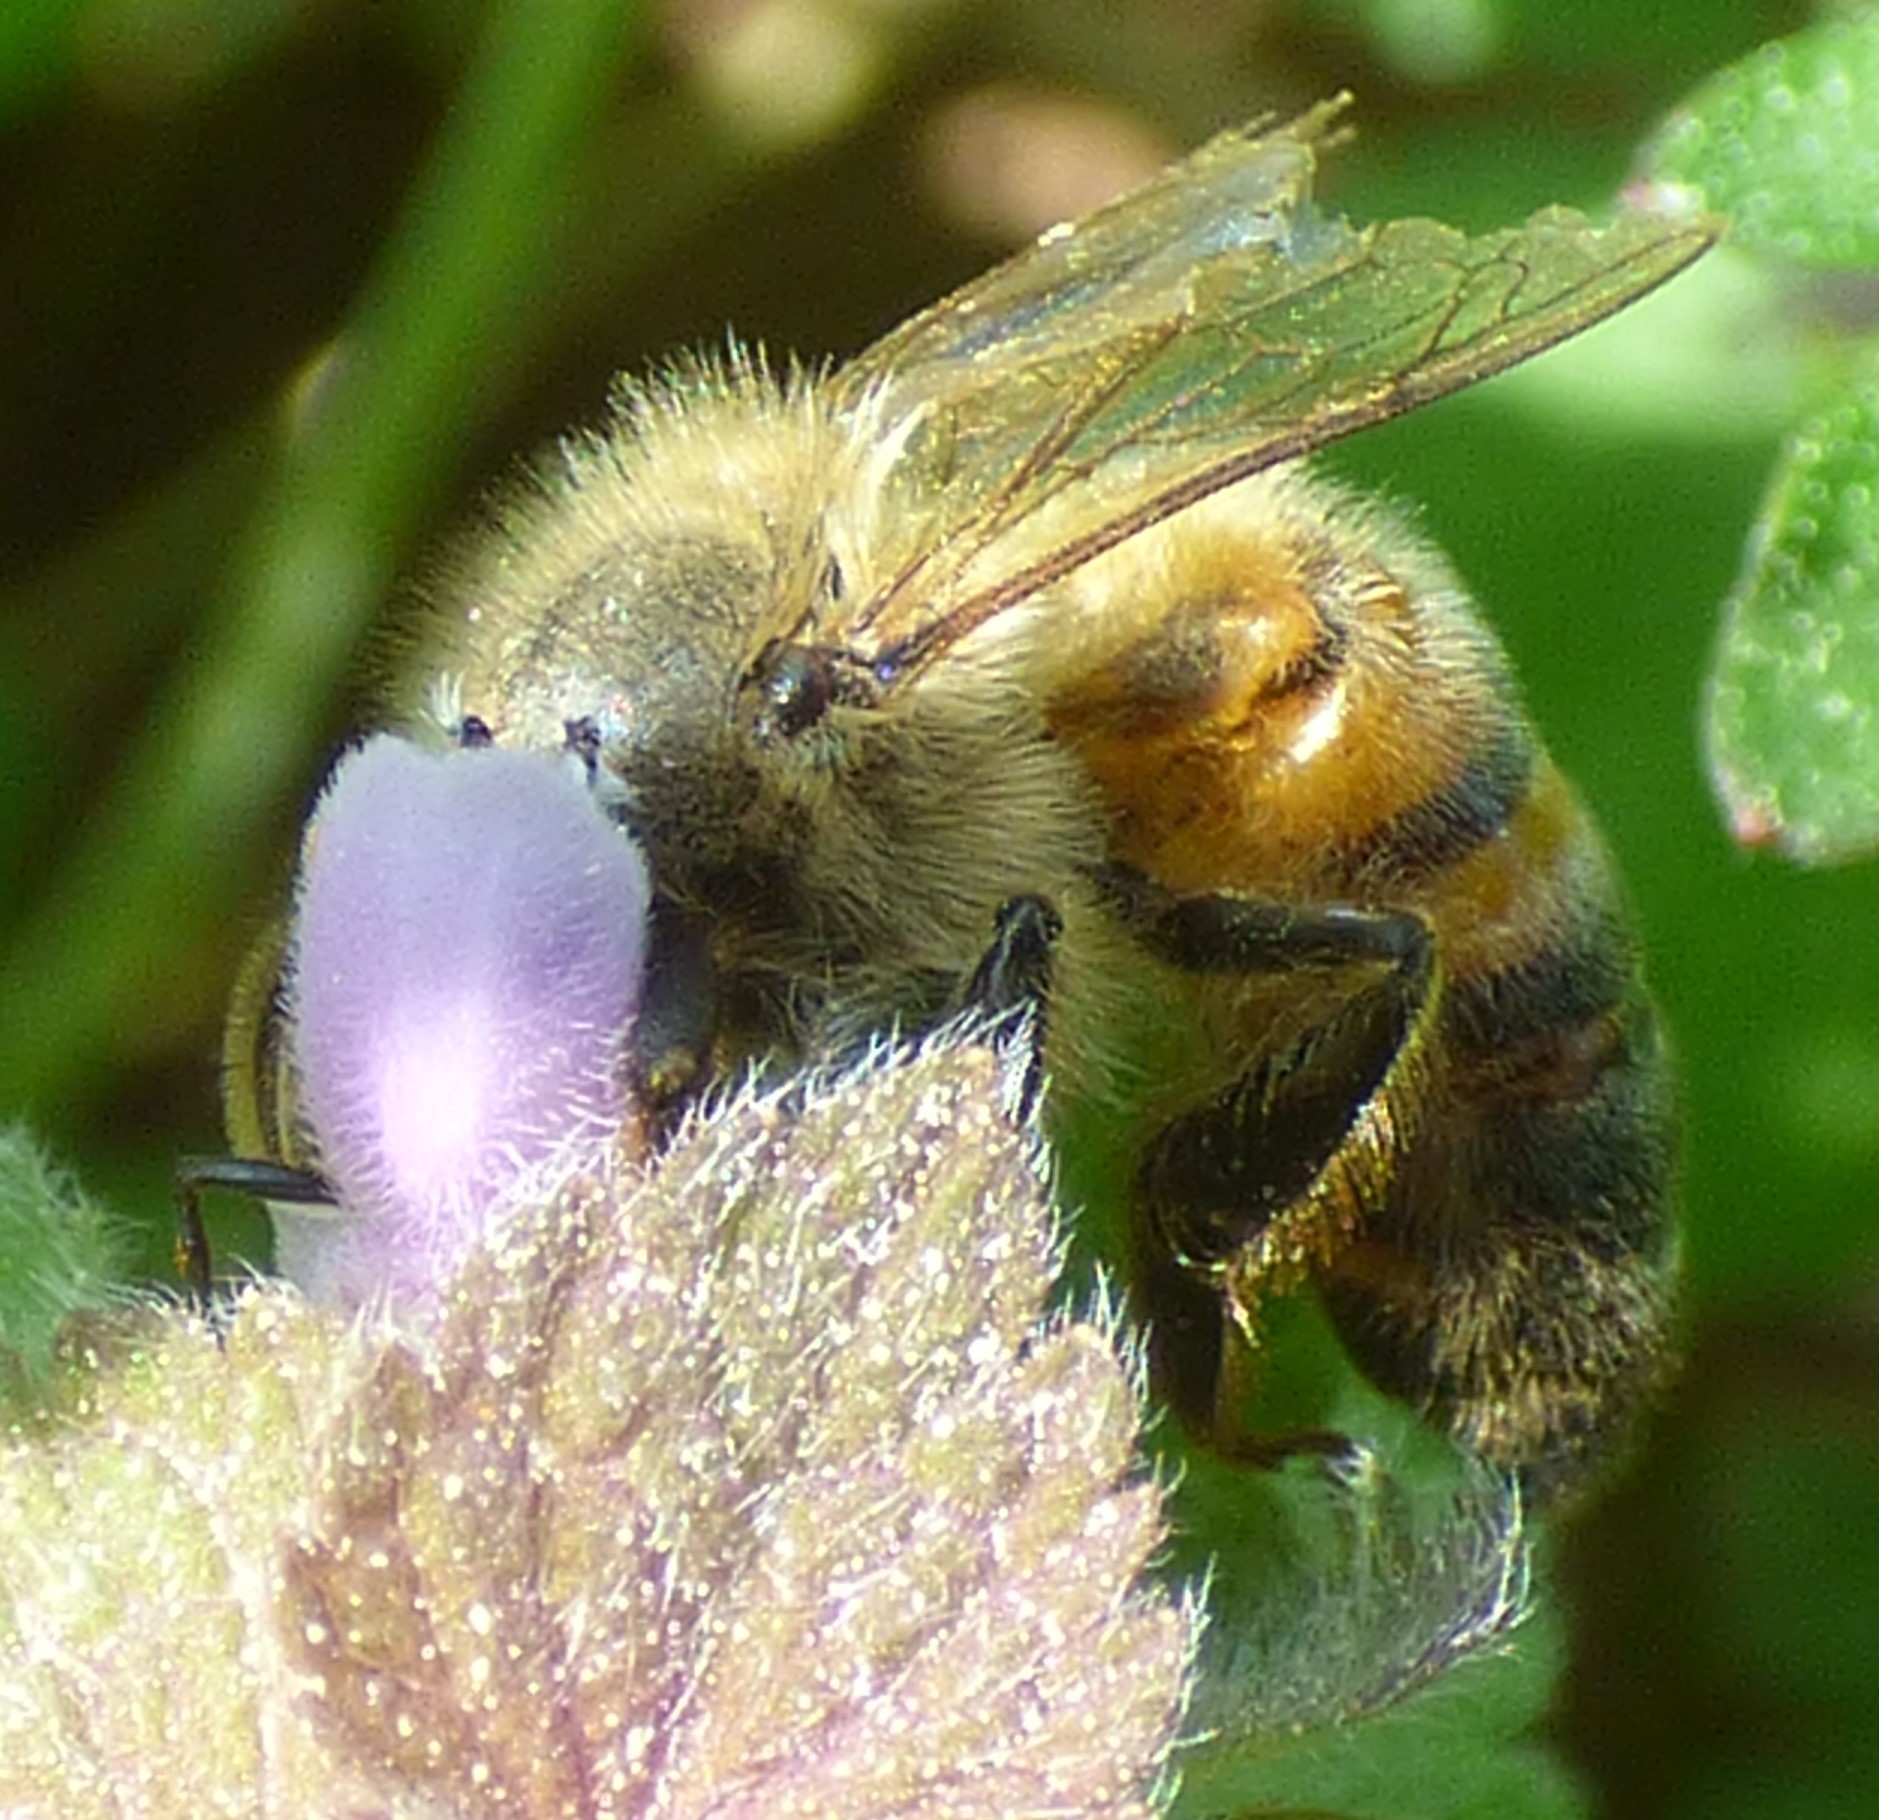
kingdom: Animalia
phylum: Arthropoda
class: Insecta
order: Hymenoptera
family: Apidae
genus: Apis
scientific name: Apis mellifera
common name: Honey bee
